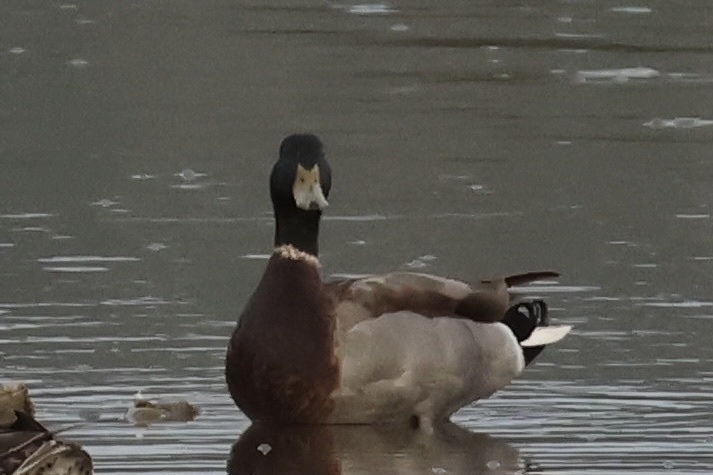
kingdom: Animalia
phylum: Chordata
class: Aves
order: Anseriformes
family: Anatidae
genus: Anas
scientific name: Anas platyrhynchos
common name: Mallard
